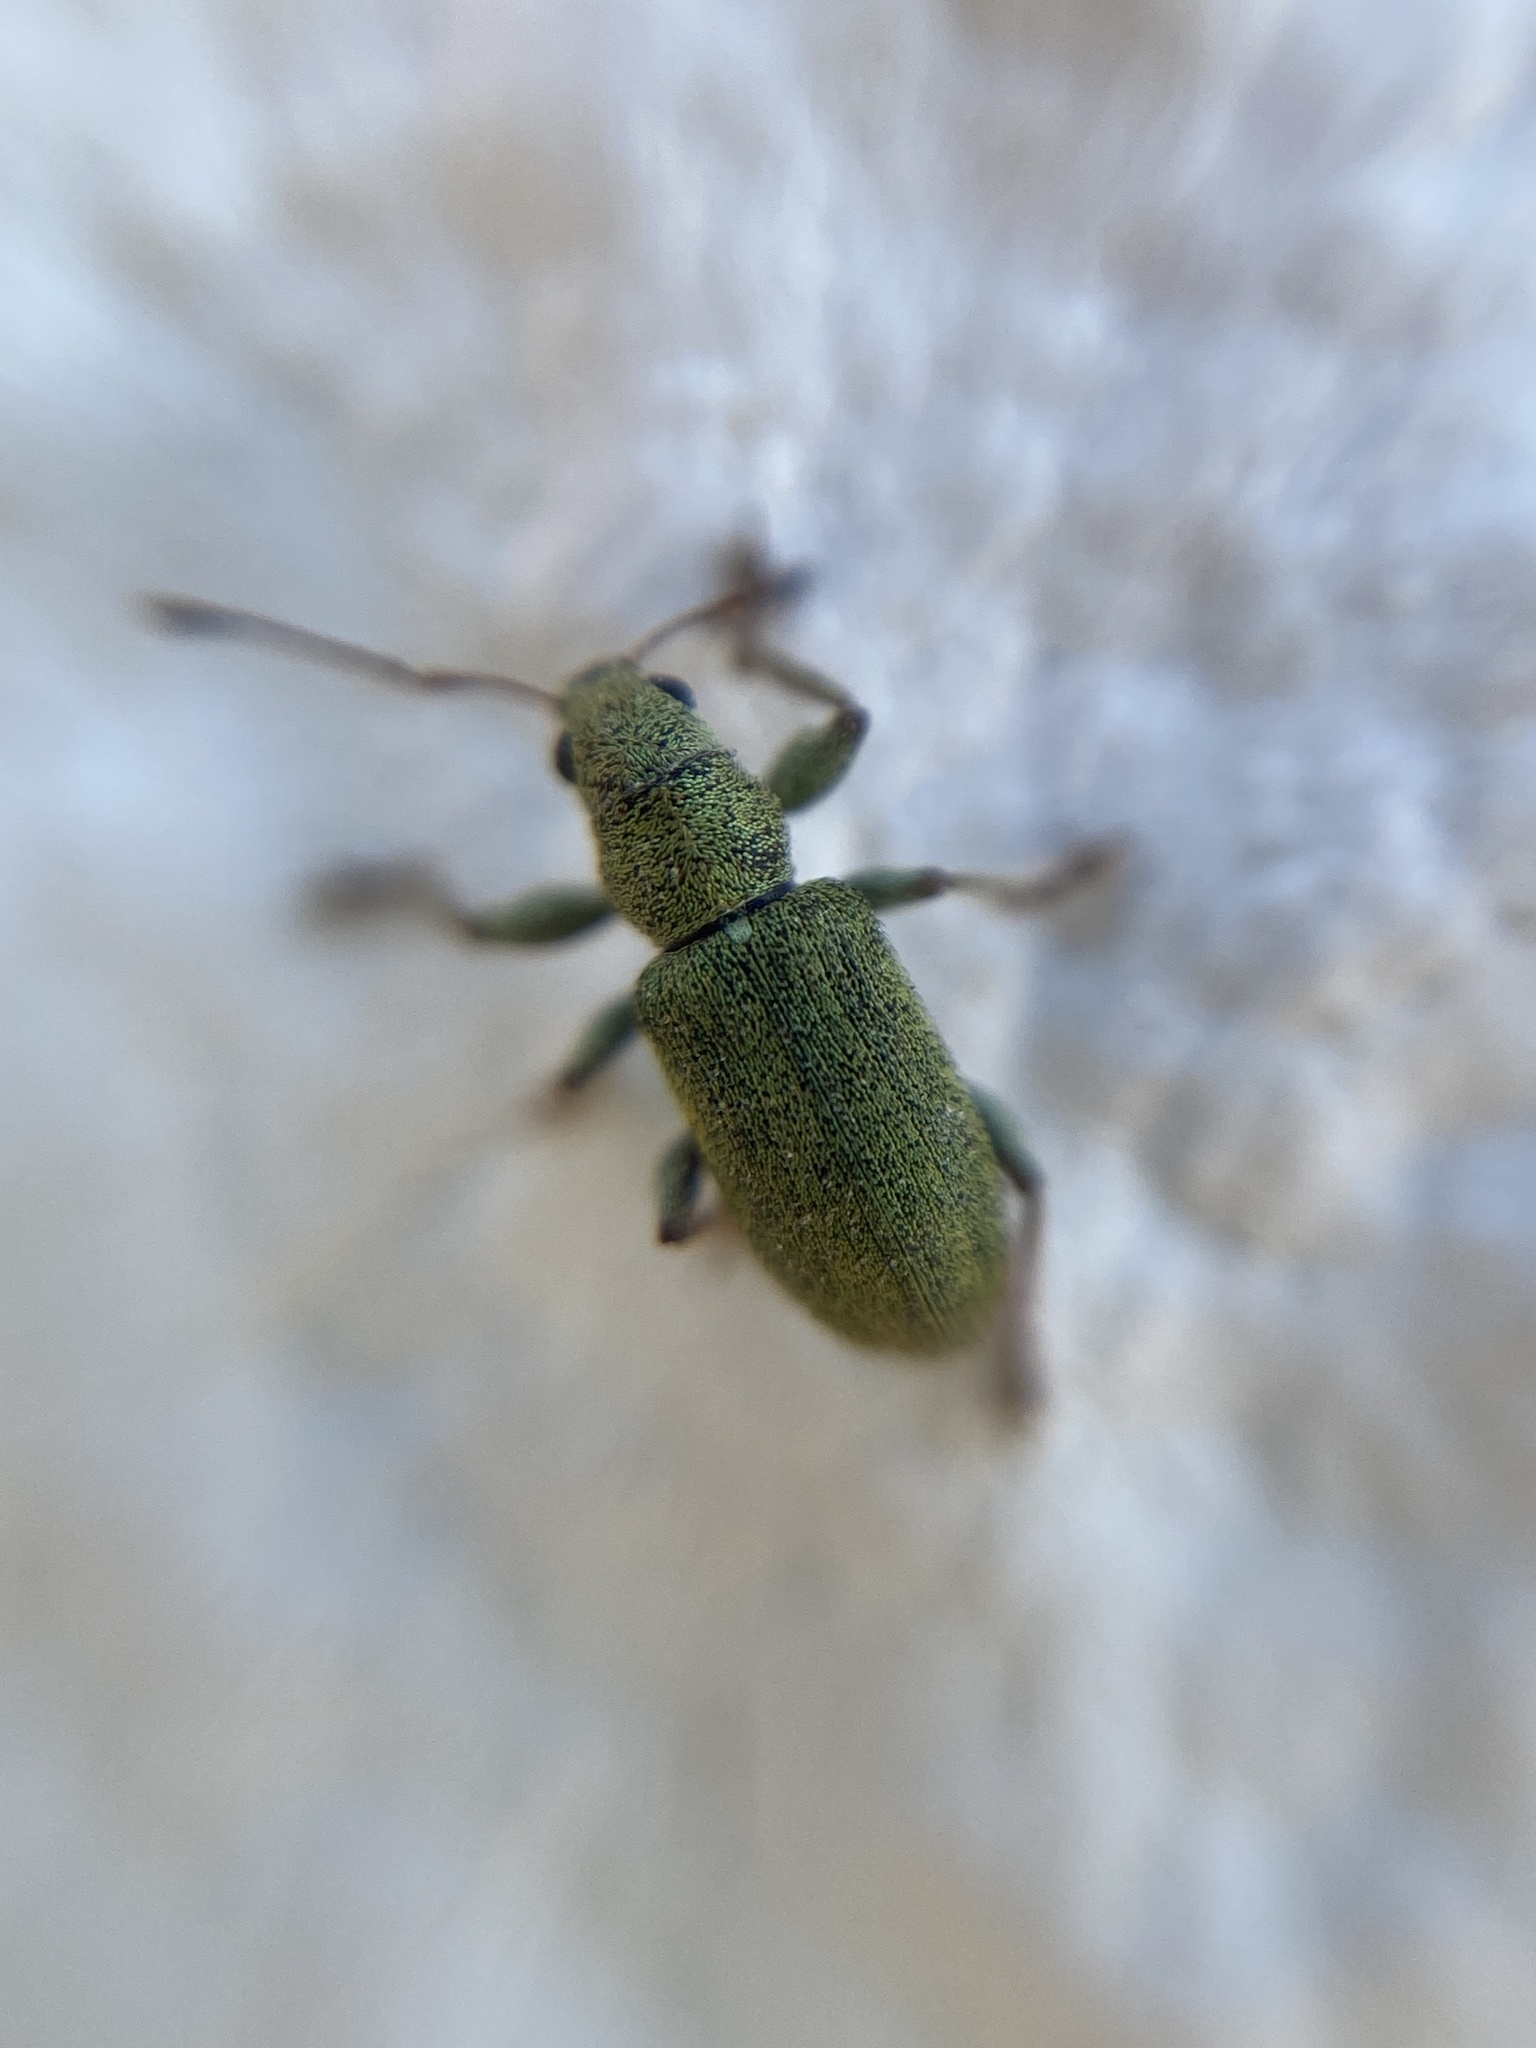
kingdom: Animalia
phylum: Arthropoda
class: Insecta
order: Coleoptera
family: Curculionidae
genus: Pachyrhinus
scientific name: Pachyrhinus lethierryi
